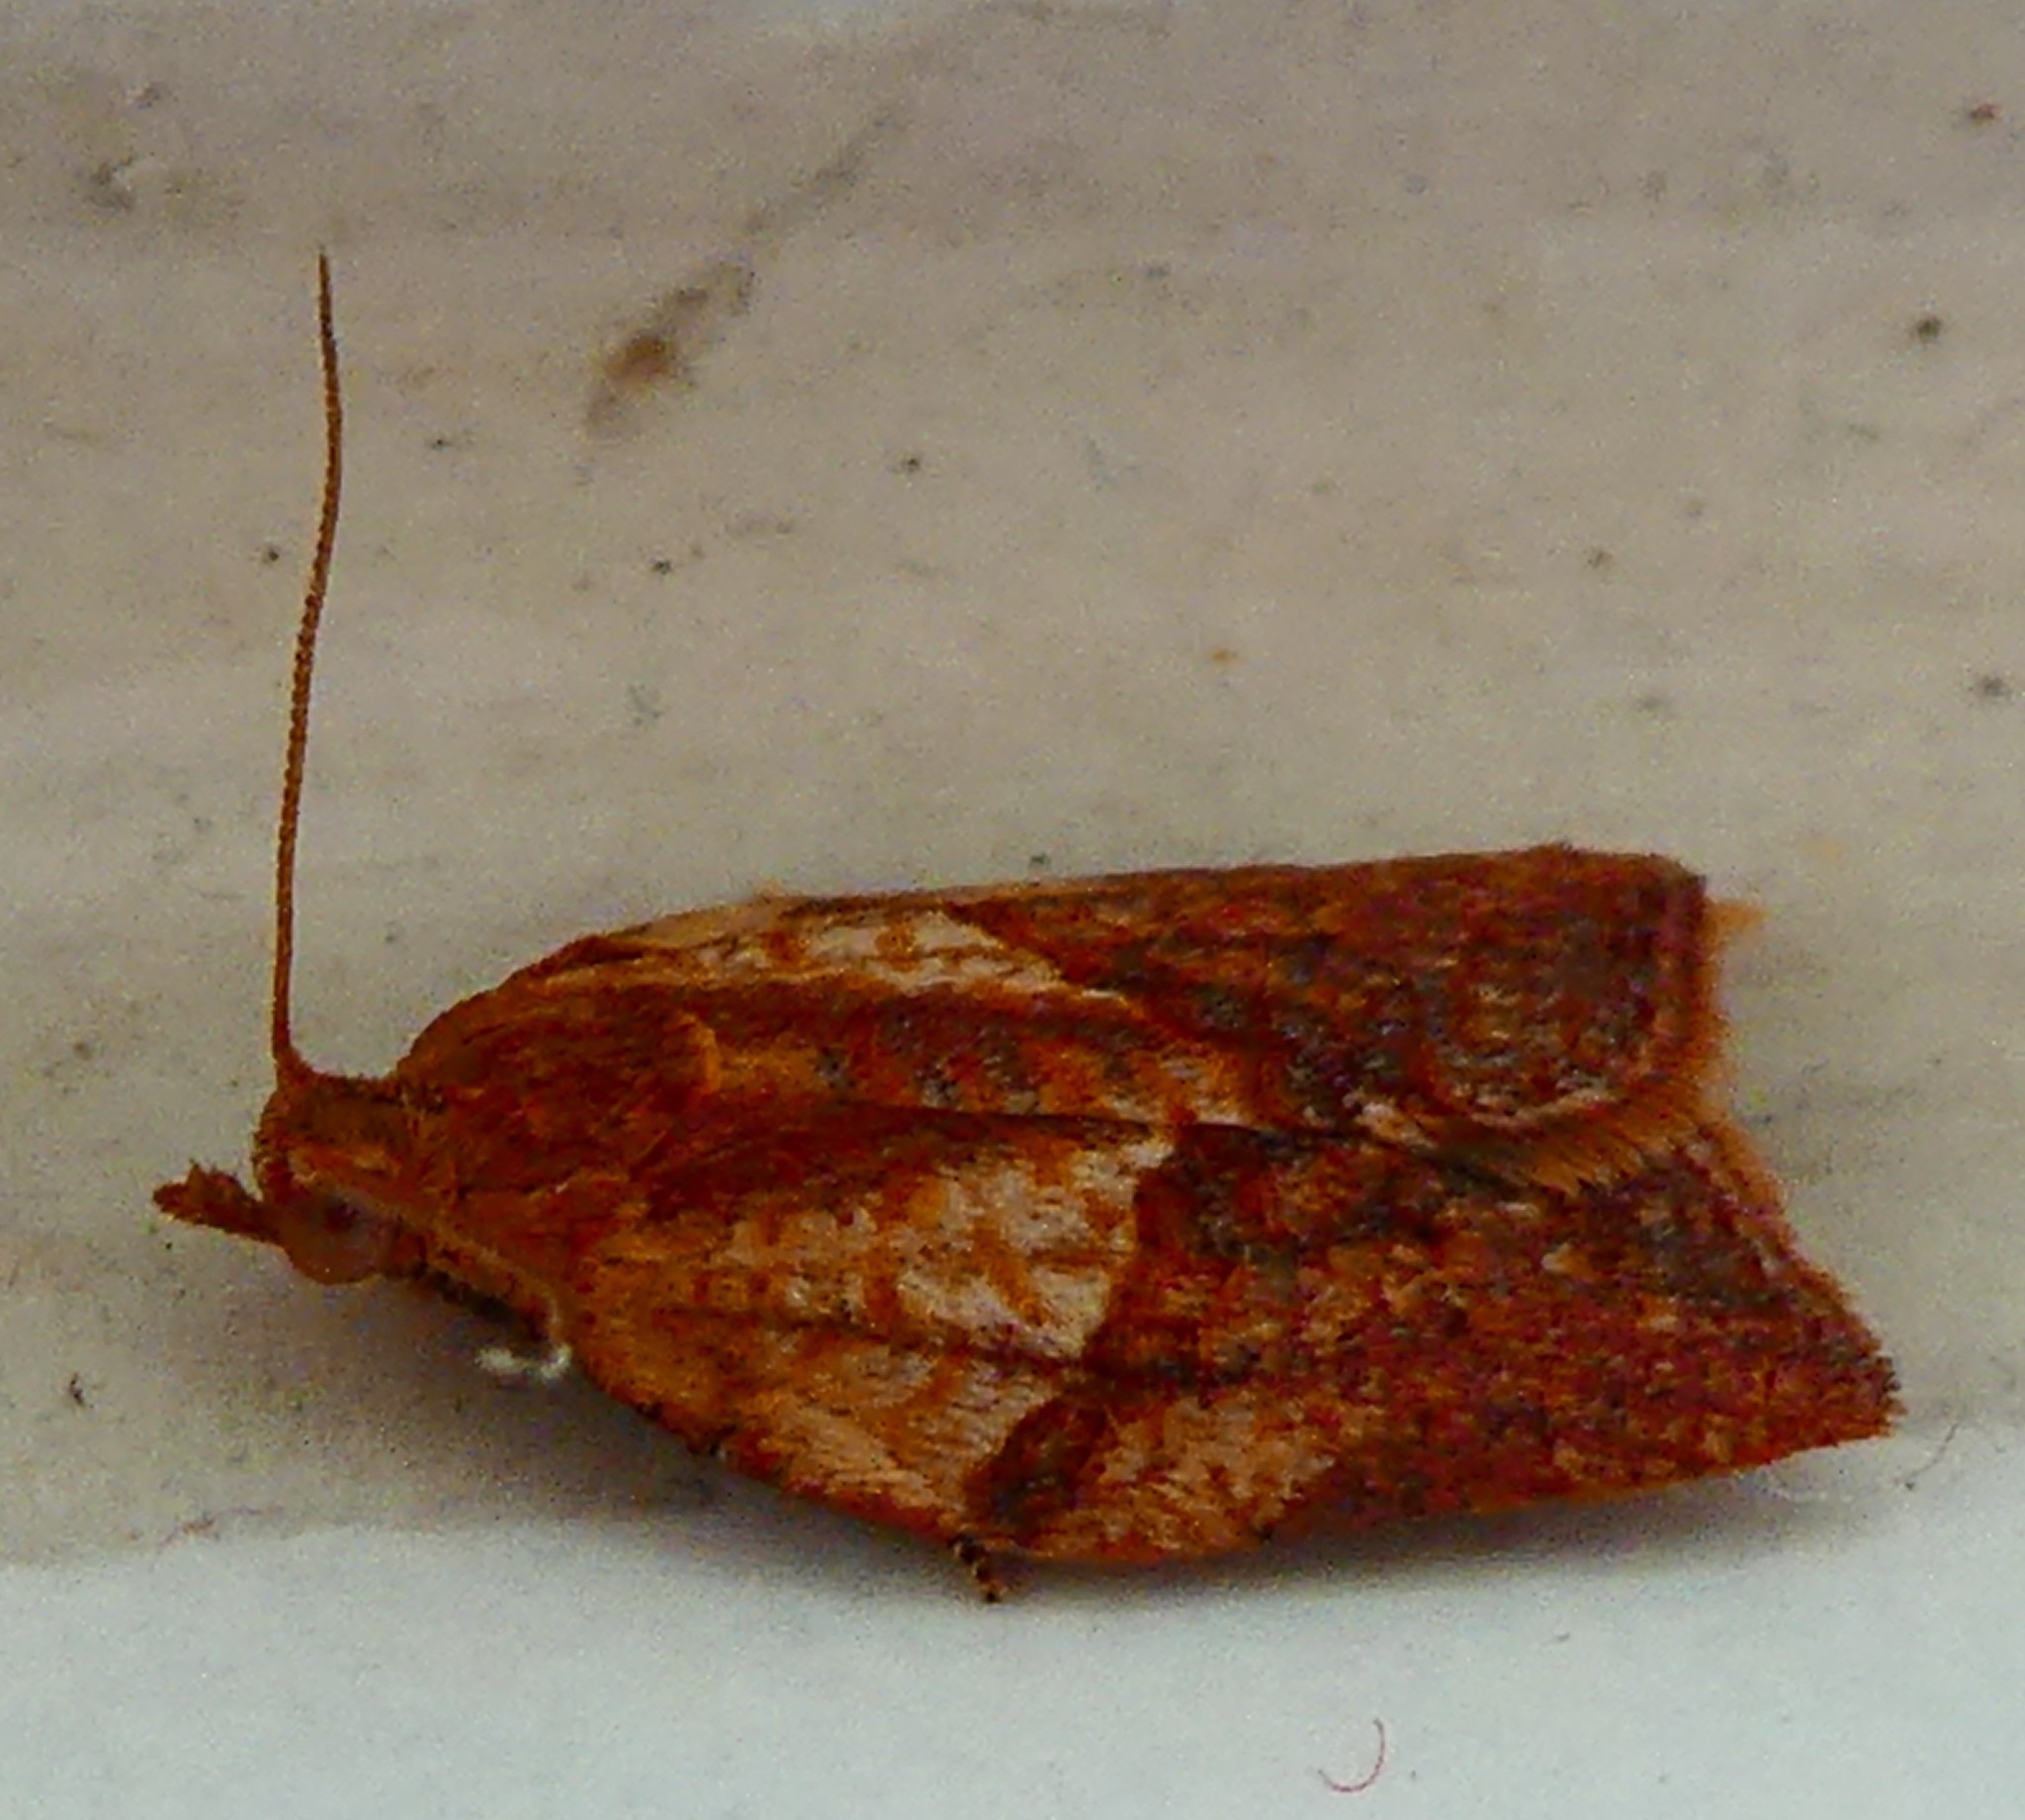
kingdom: Animalia
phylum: Arthropoda
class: Insecta
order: Lepidoptera
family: Tortricidae
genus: Epiphyas
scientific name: Epiphyas postvittana
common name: Light brown apple moth
